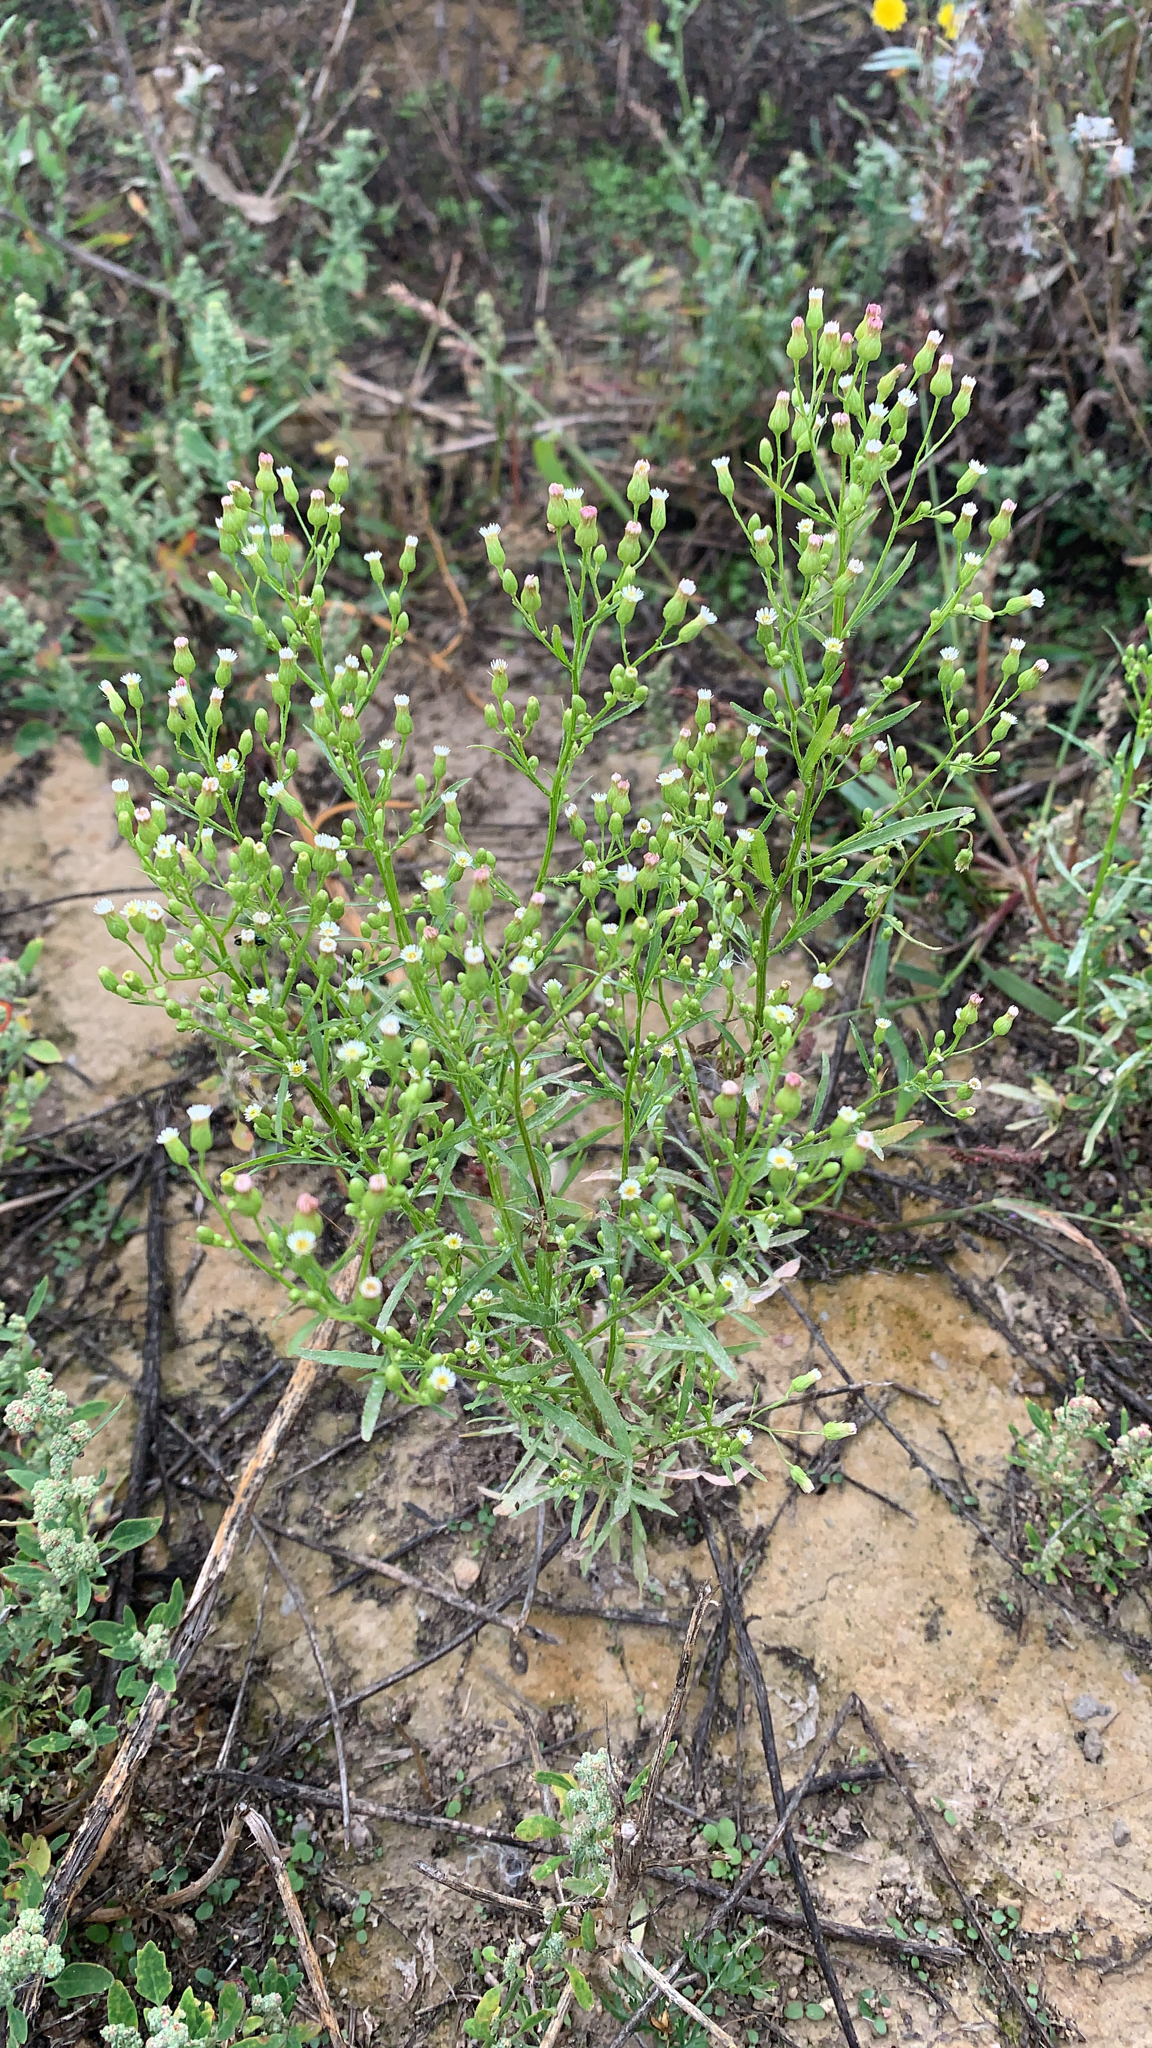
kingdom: Plantae
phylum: Tracheophyta
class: Magnoliopsida
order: Asterales
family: Asteraceae
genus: Erigeron
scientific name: Erigeron canadensis
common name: Canadian fleabane
